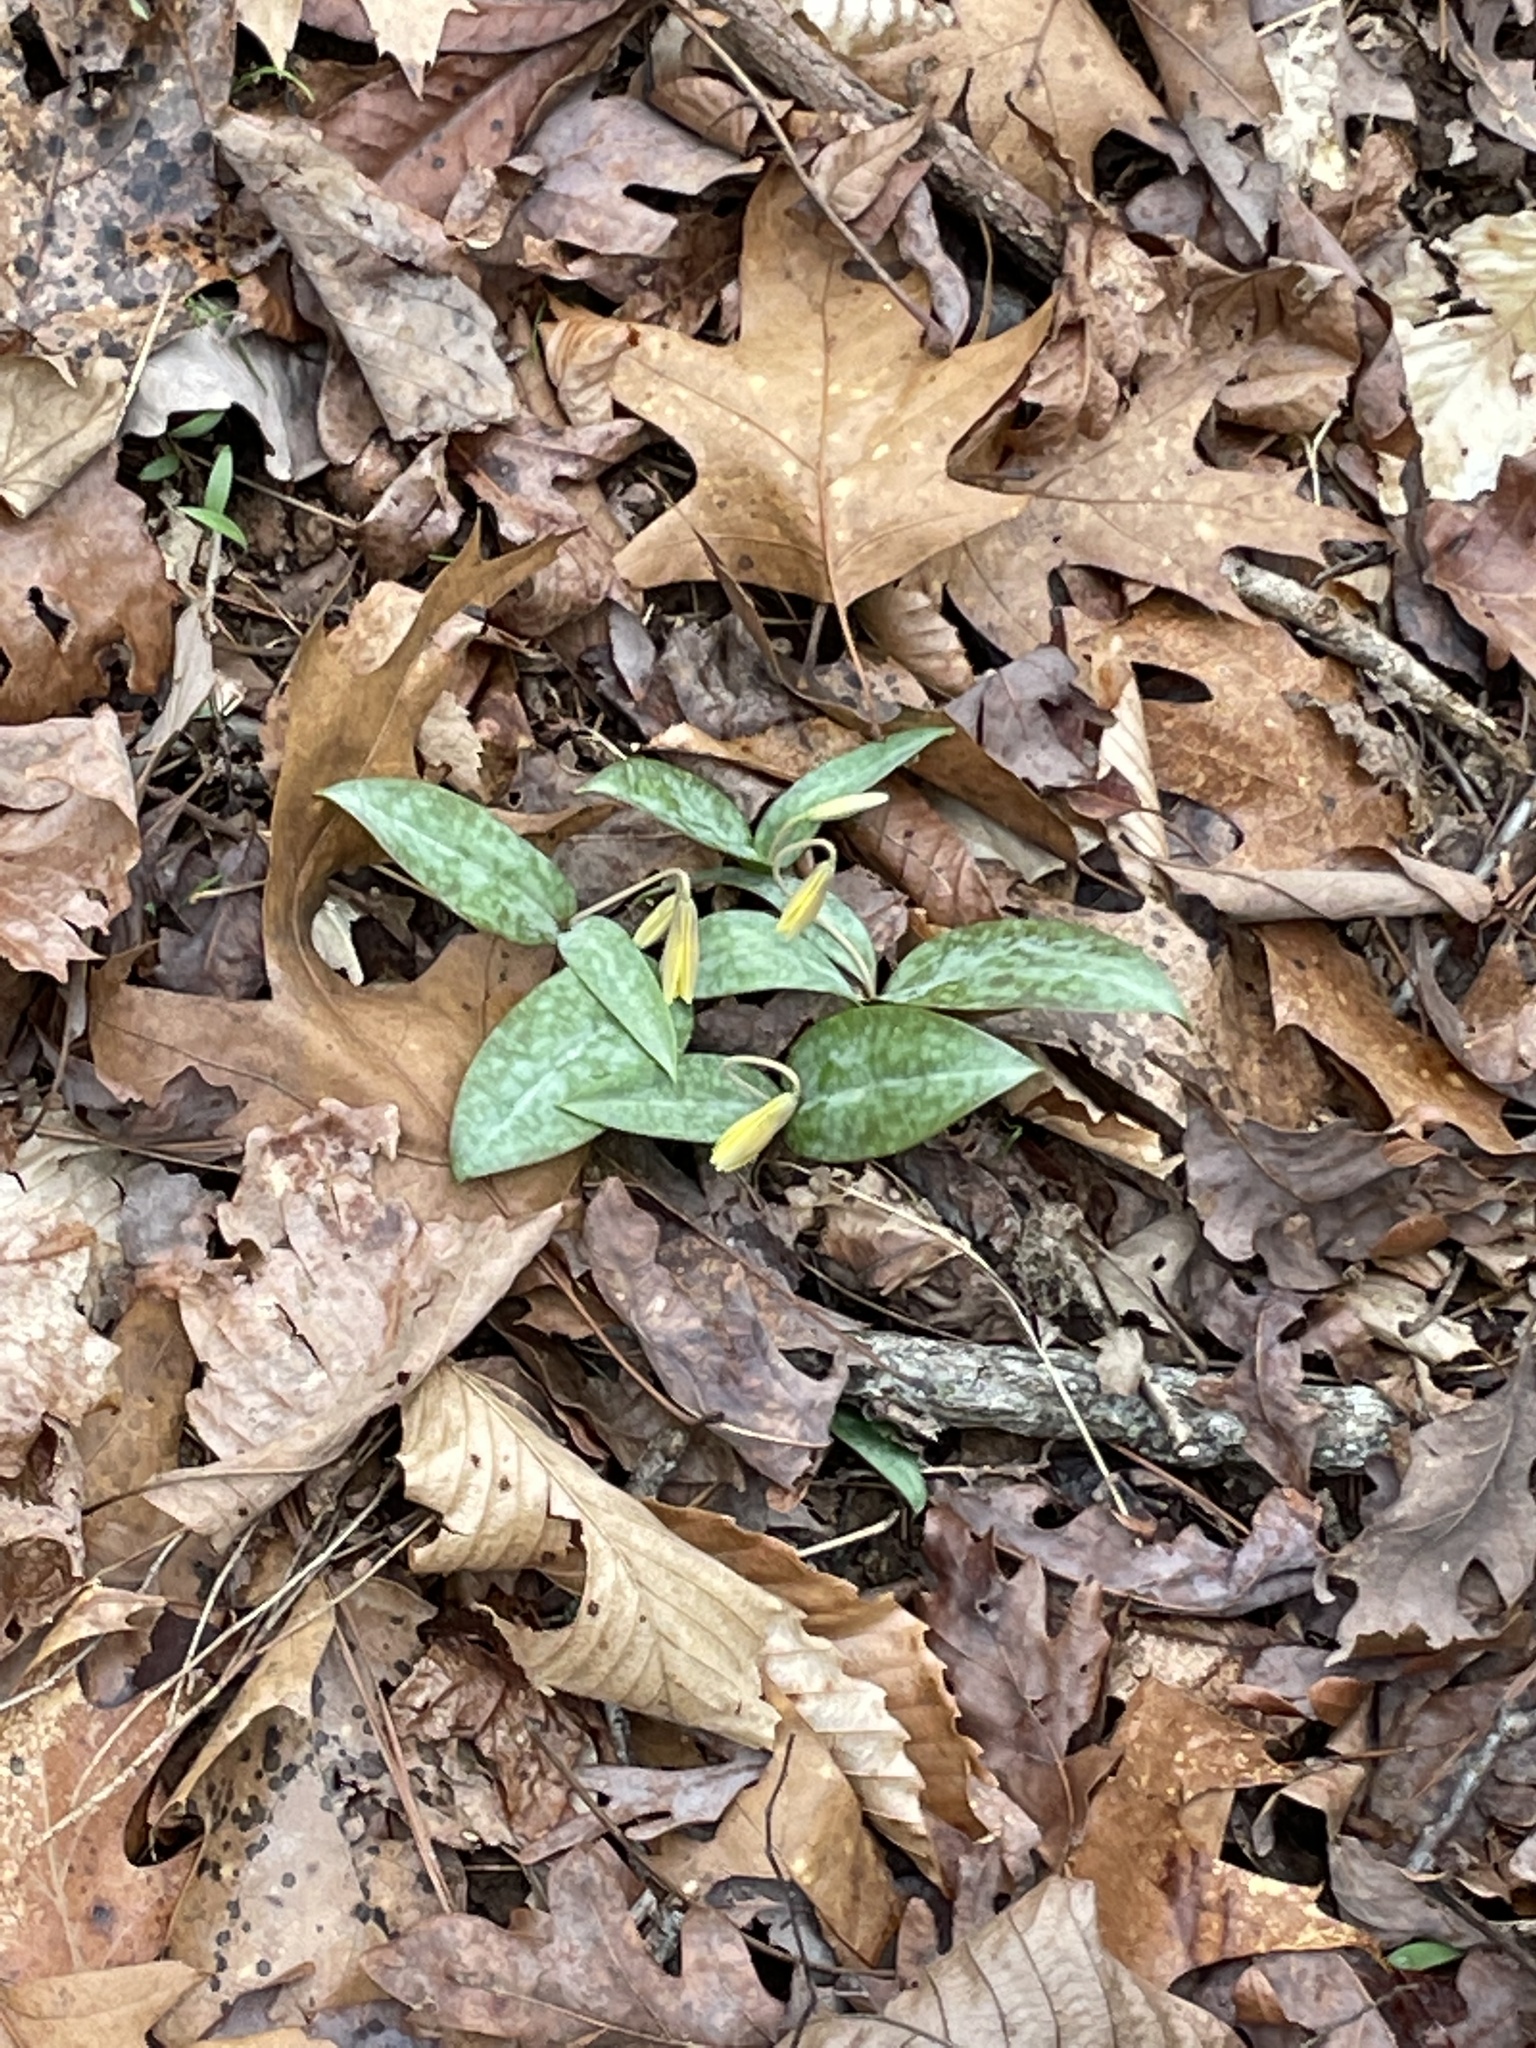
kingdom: Plantae
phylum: Tracheophyta
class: Liliopsida
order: Liliales
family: Liliaceae
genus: Erythronium
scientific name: Erythronium umbilicatum
